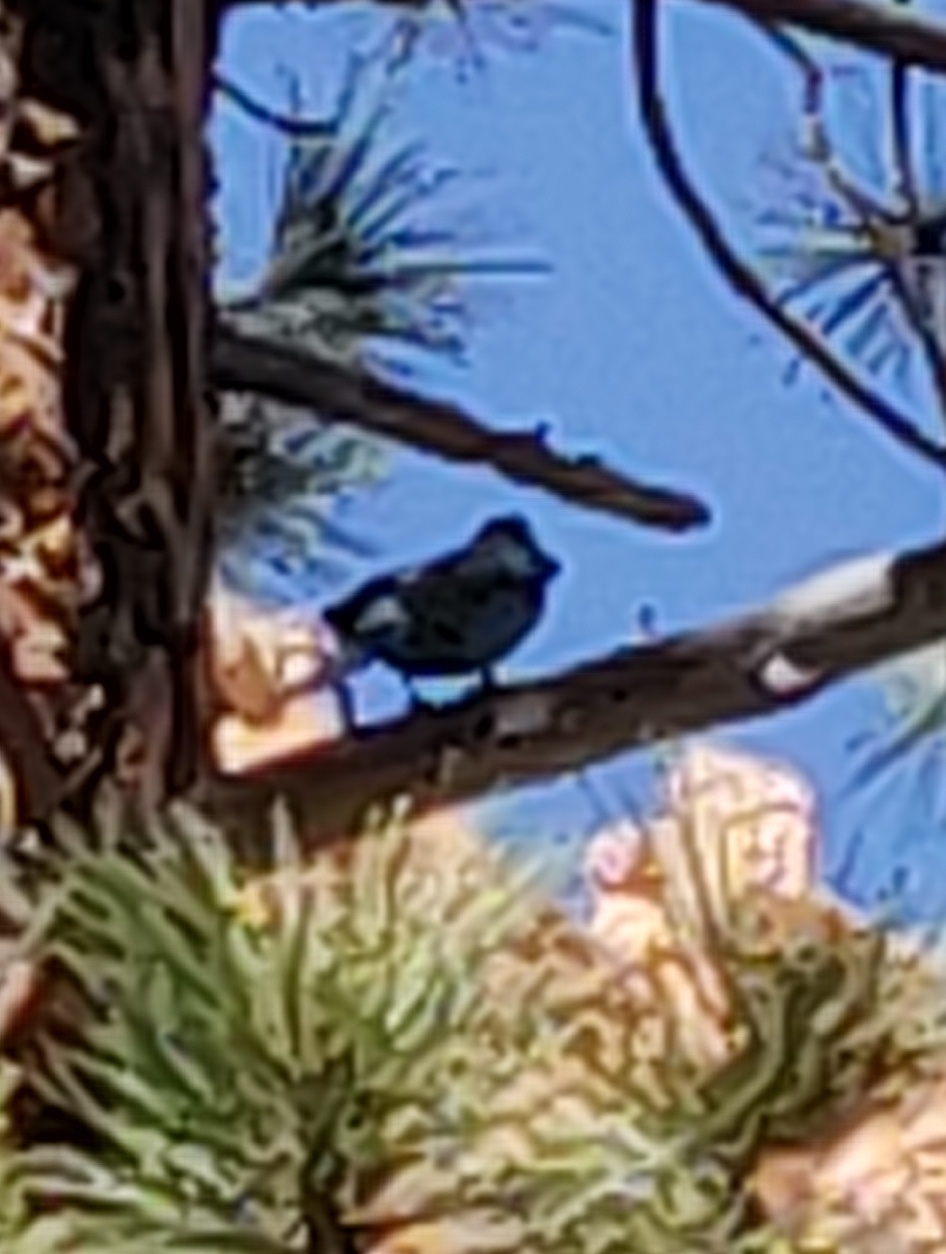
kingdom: Animalia
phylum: Chordata
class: Aves
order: Passeriformes
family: Corvidae
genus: Cyanocitta
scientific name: Cyanocitta stelleri
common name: Steller's jay
